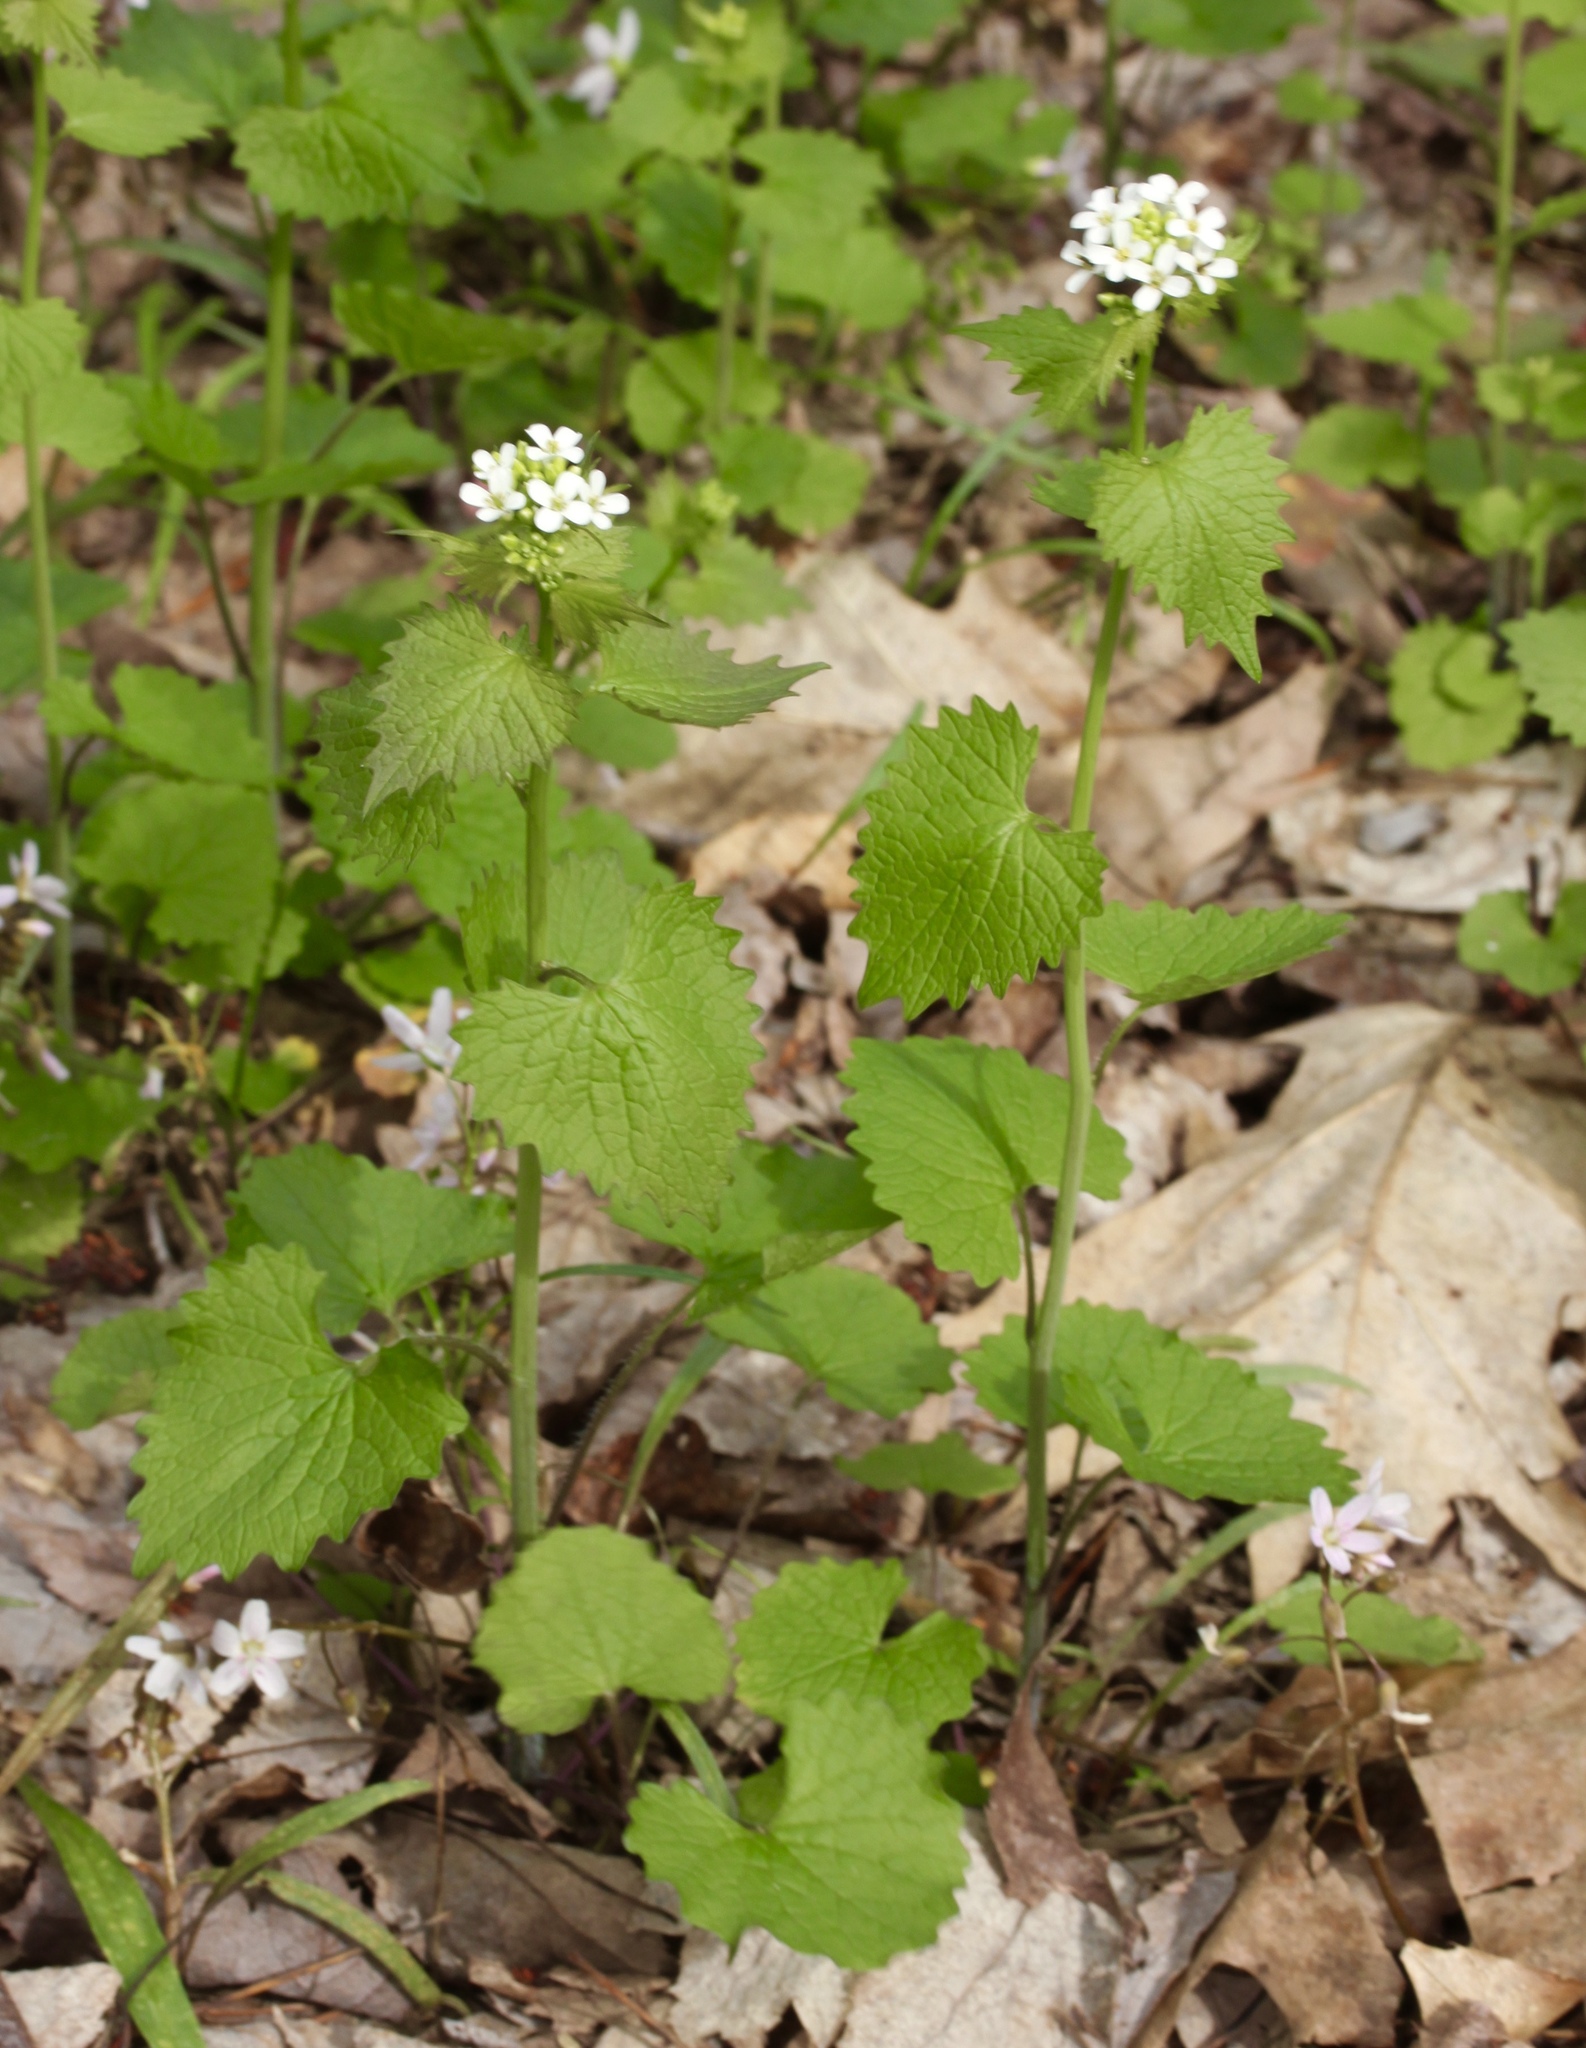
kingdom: Plantae
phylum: Tracheophyta
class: Magnoliopsida
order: Brassicales
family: Brassicaceae
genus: Alliaria
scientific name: Alliaria petiolata
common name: Garlic mustard
